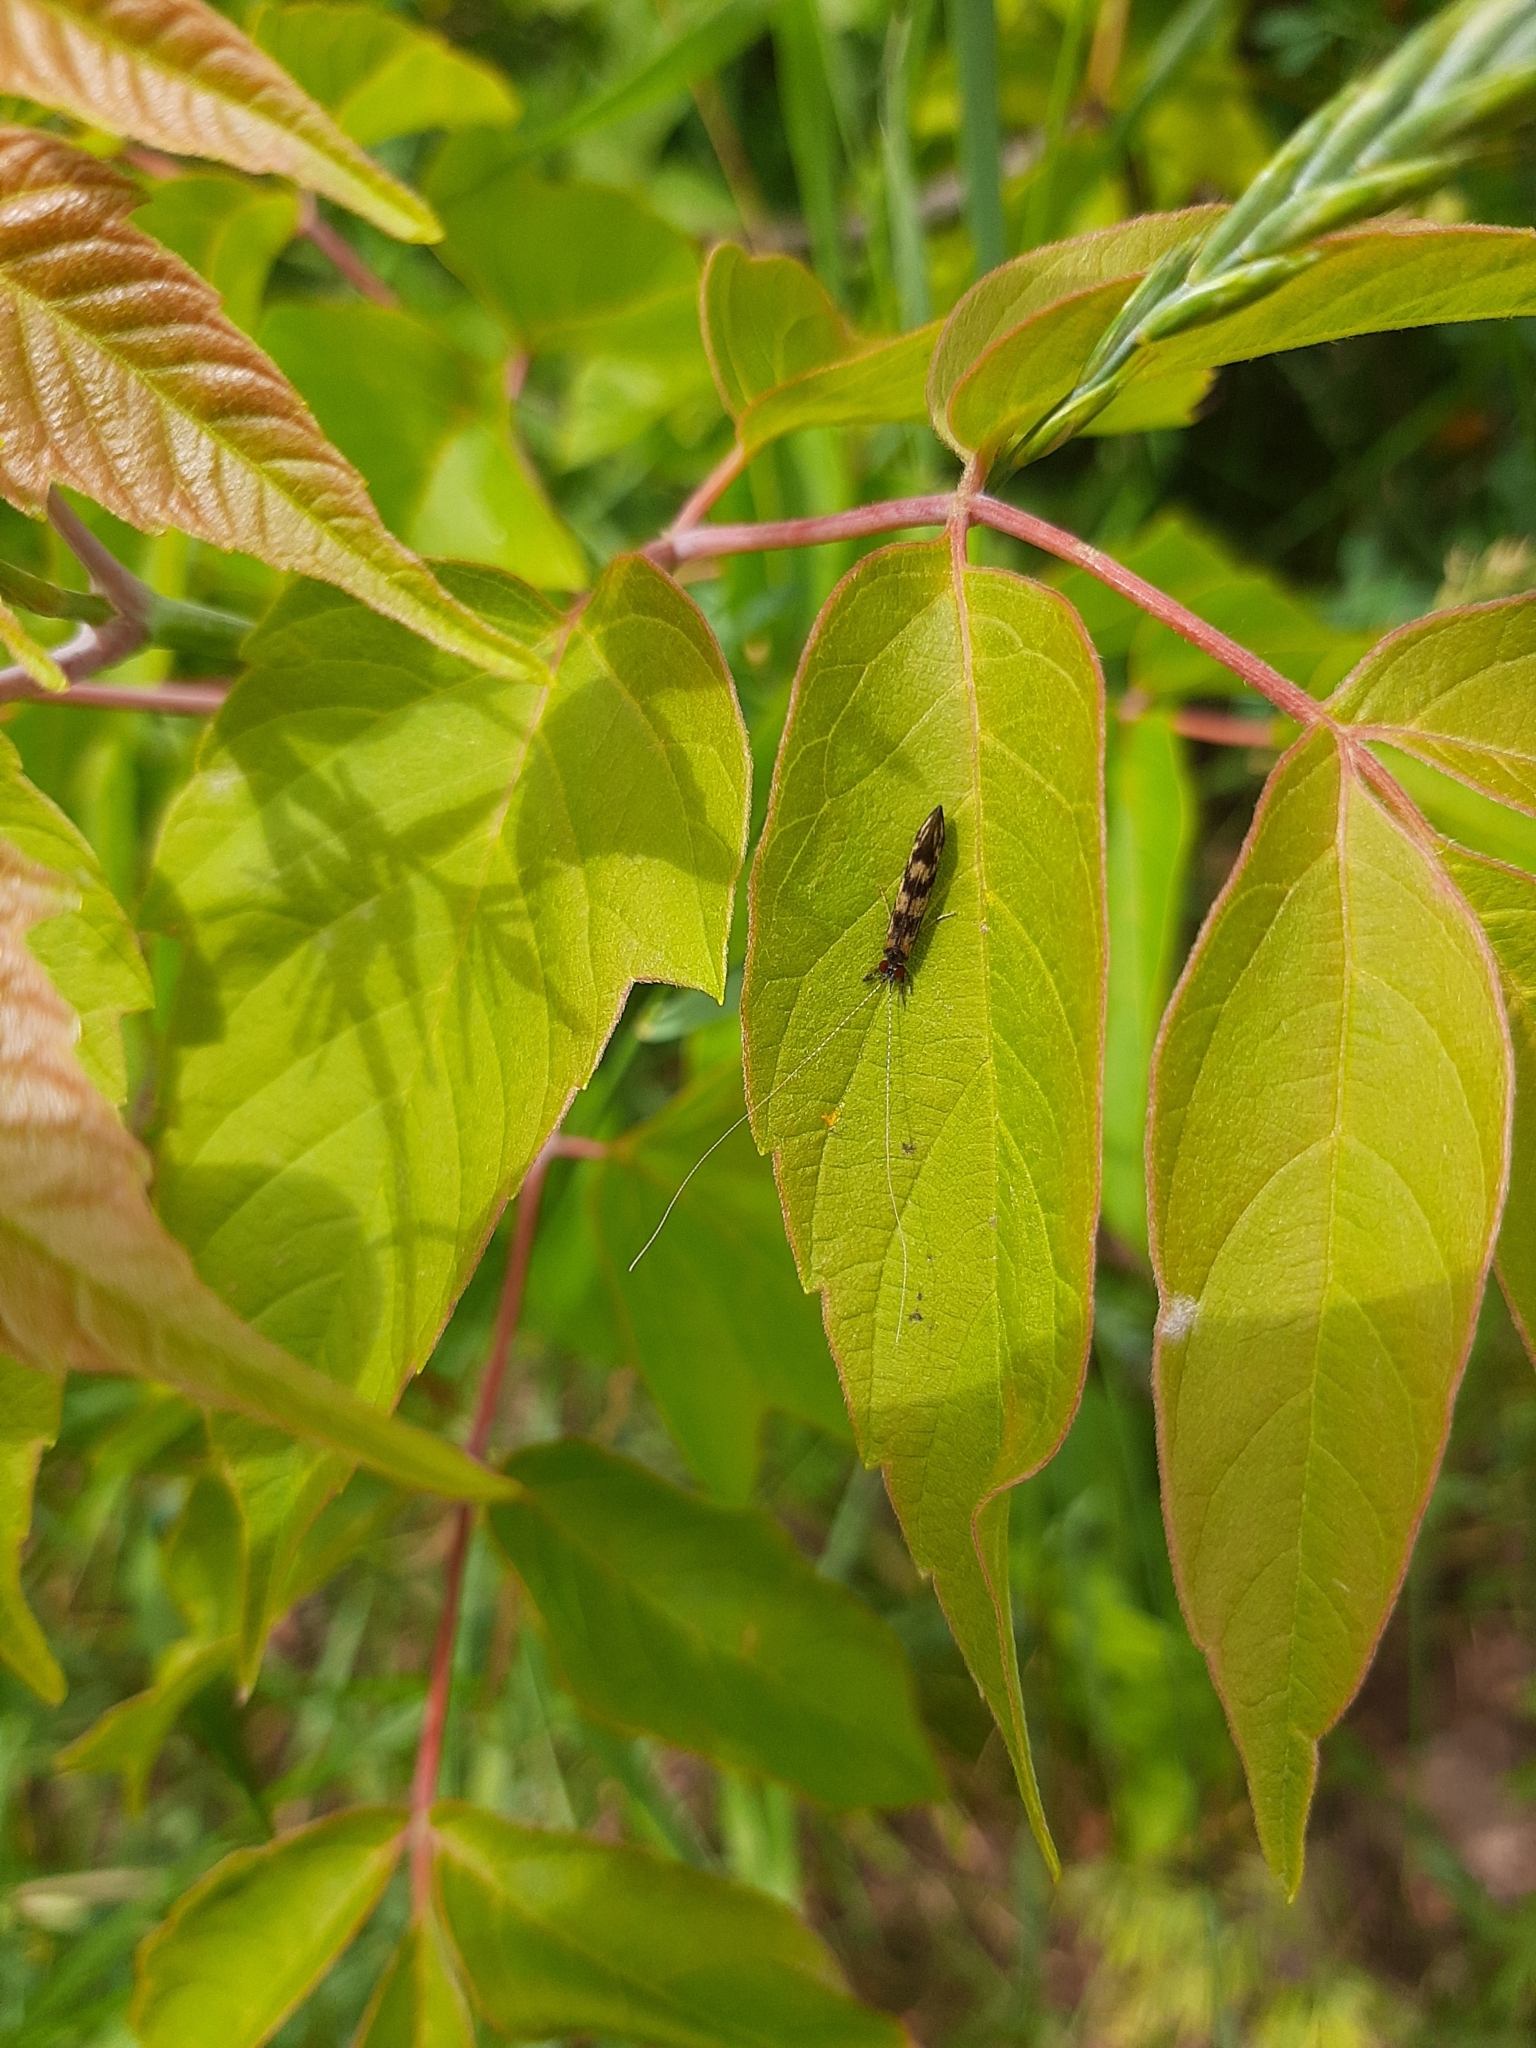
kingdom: Animalia
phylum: Arthropoda
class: Insecta
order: Trichoptera
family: Leptoceridae
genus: Mystacides
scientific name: Mystacides longicornis
